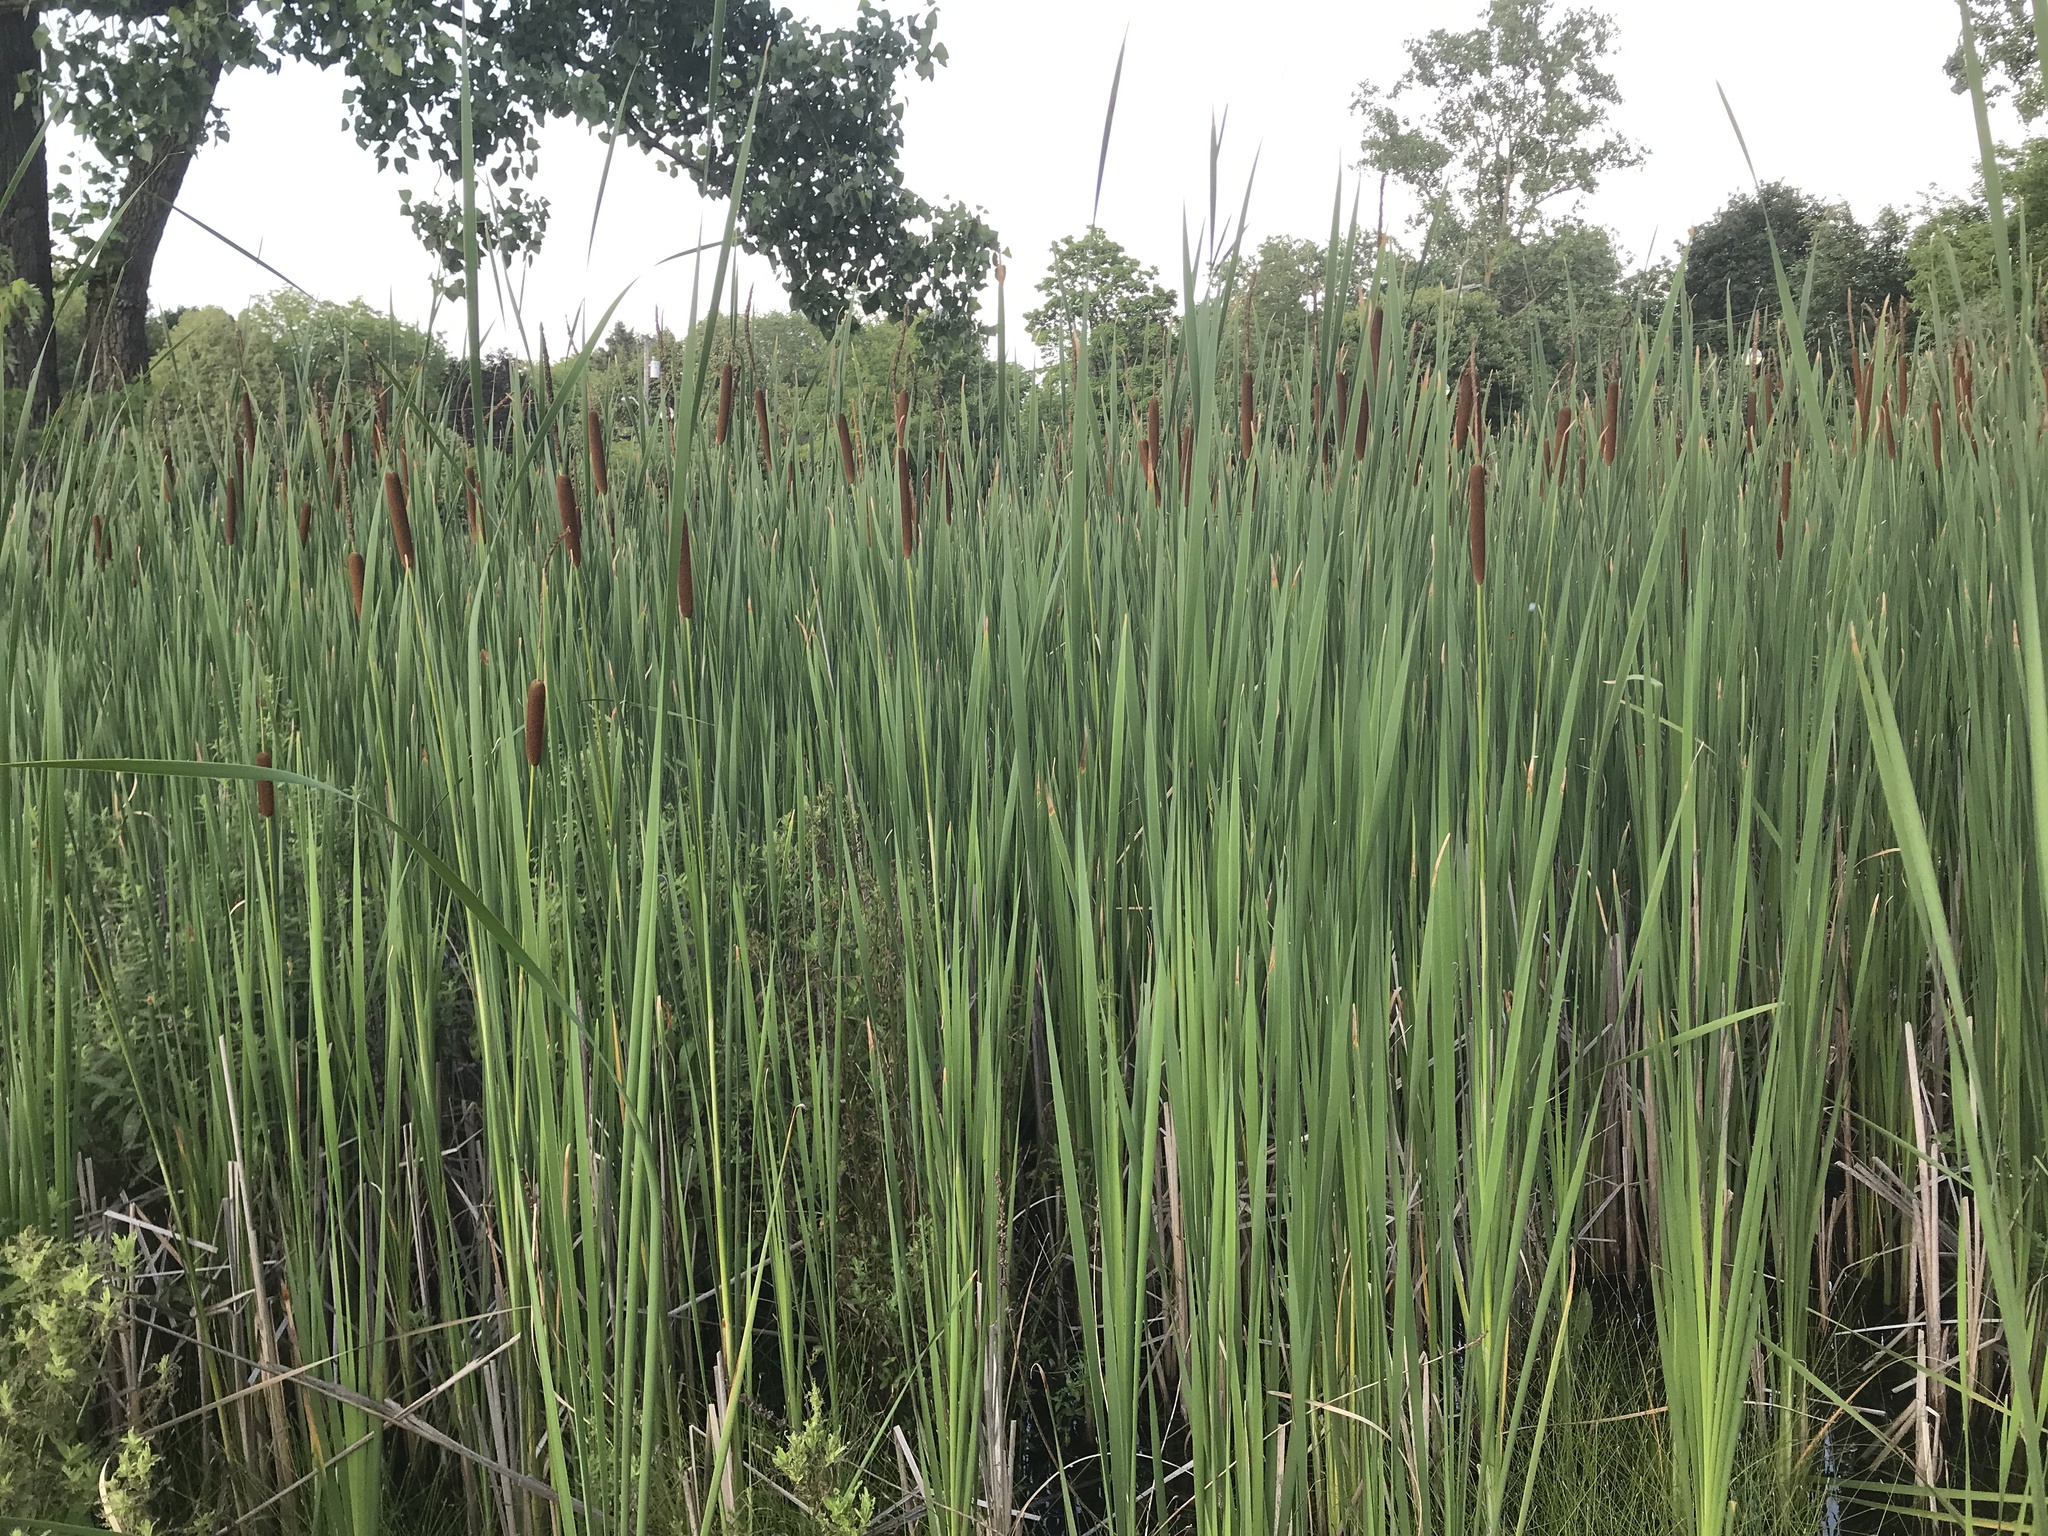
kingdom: Plantae
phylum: Tracheophyta
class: Liliopsida
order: Poales
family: Typhaceae
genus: Typha
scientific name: Typha glauca
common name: Blue cattail
